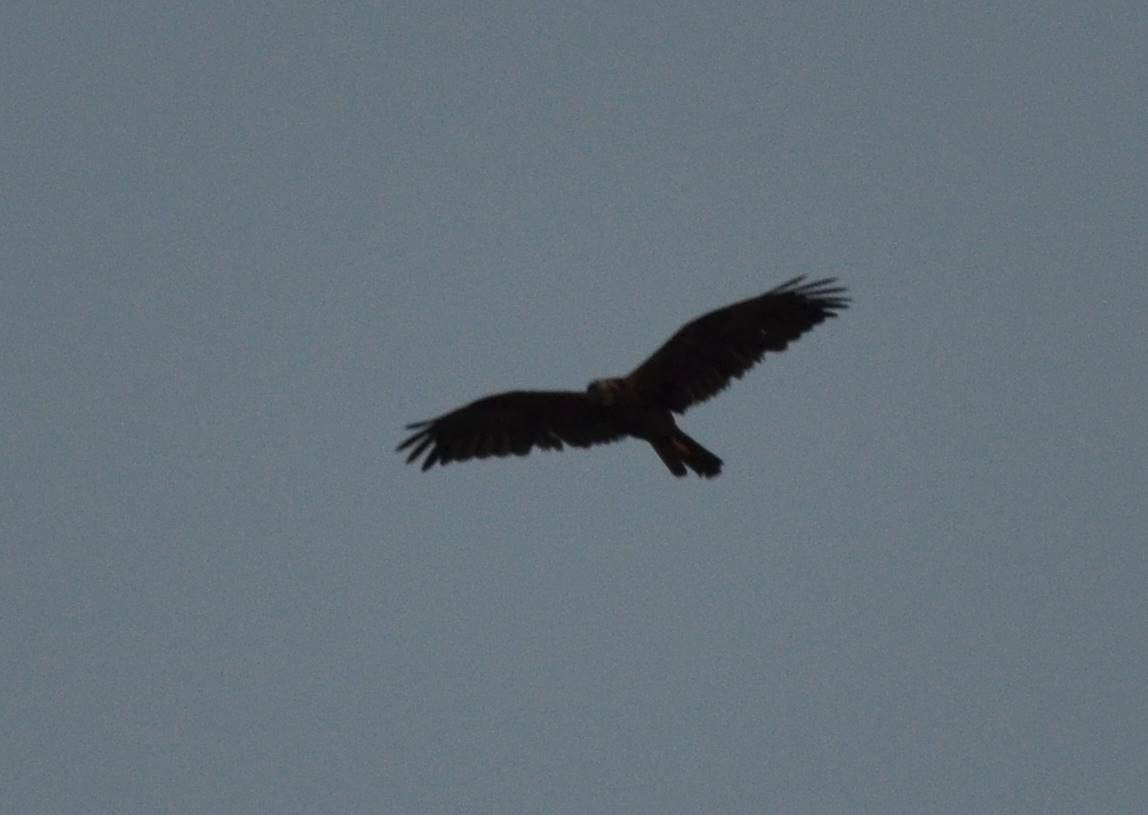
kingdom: Animalia
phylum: Chordata
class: Aves
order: Accipitriformes
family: Accipitridae
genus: Circus
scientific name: Circus aeruginosus
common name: Western marsh harrier
